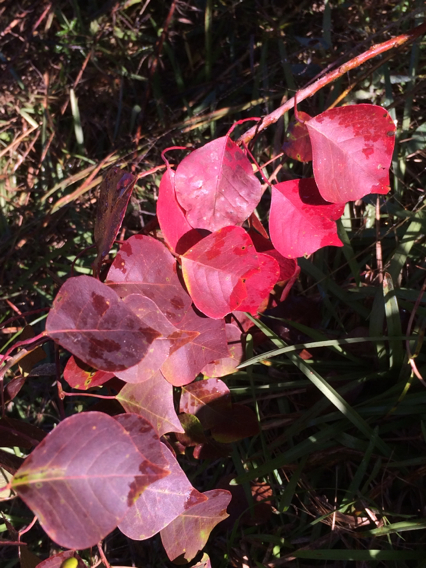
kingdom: Plantae
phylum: Tracheophyta
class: Magnoliopsida
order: Malpighiales
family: Euphorbiaceae
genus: Triadica
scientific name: Triadica sebifera
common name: Chinese tallow
